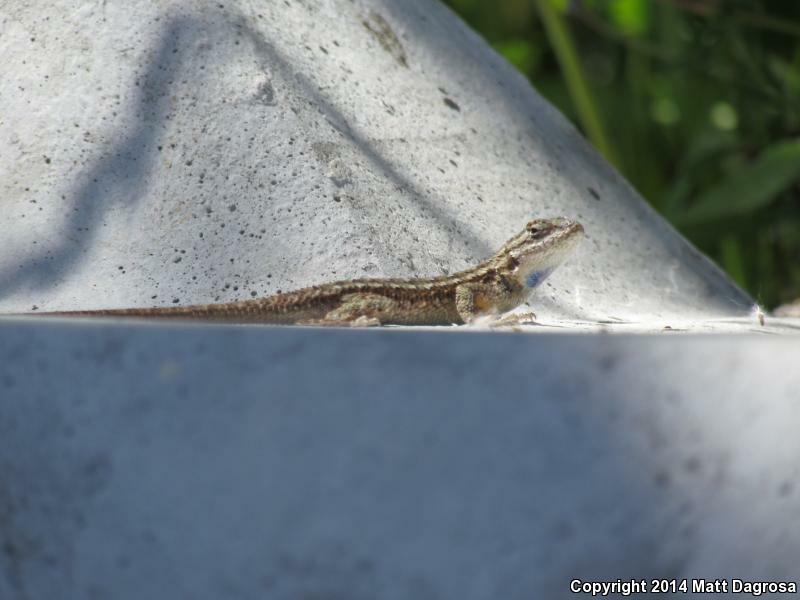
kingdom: Animalia
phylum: Chordata
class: Squamata
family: Phrynosomatidae
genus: Sceloporus
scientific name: Sceloporus occidentalis
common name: Western fence lizard
